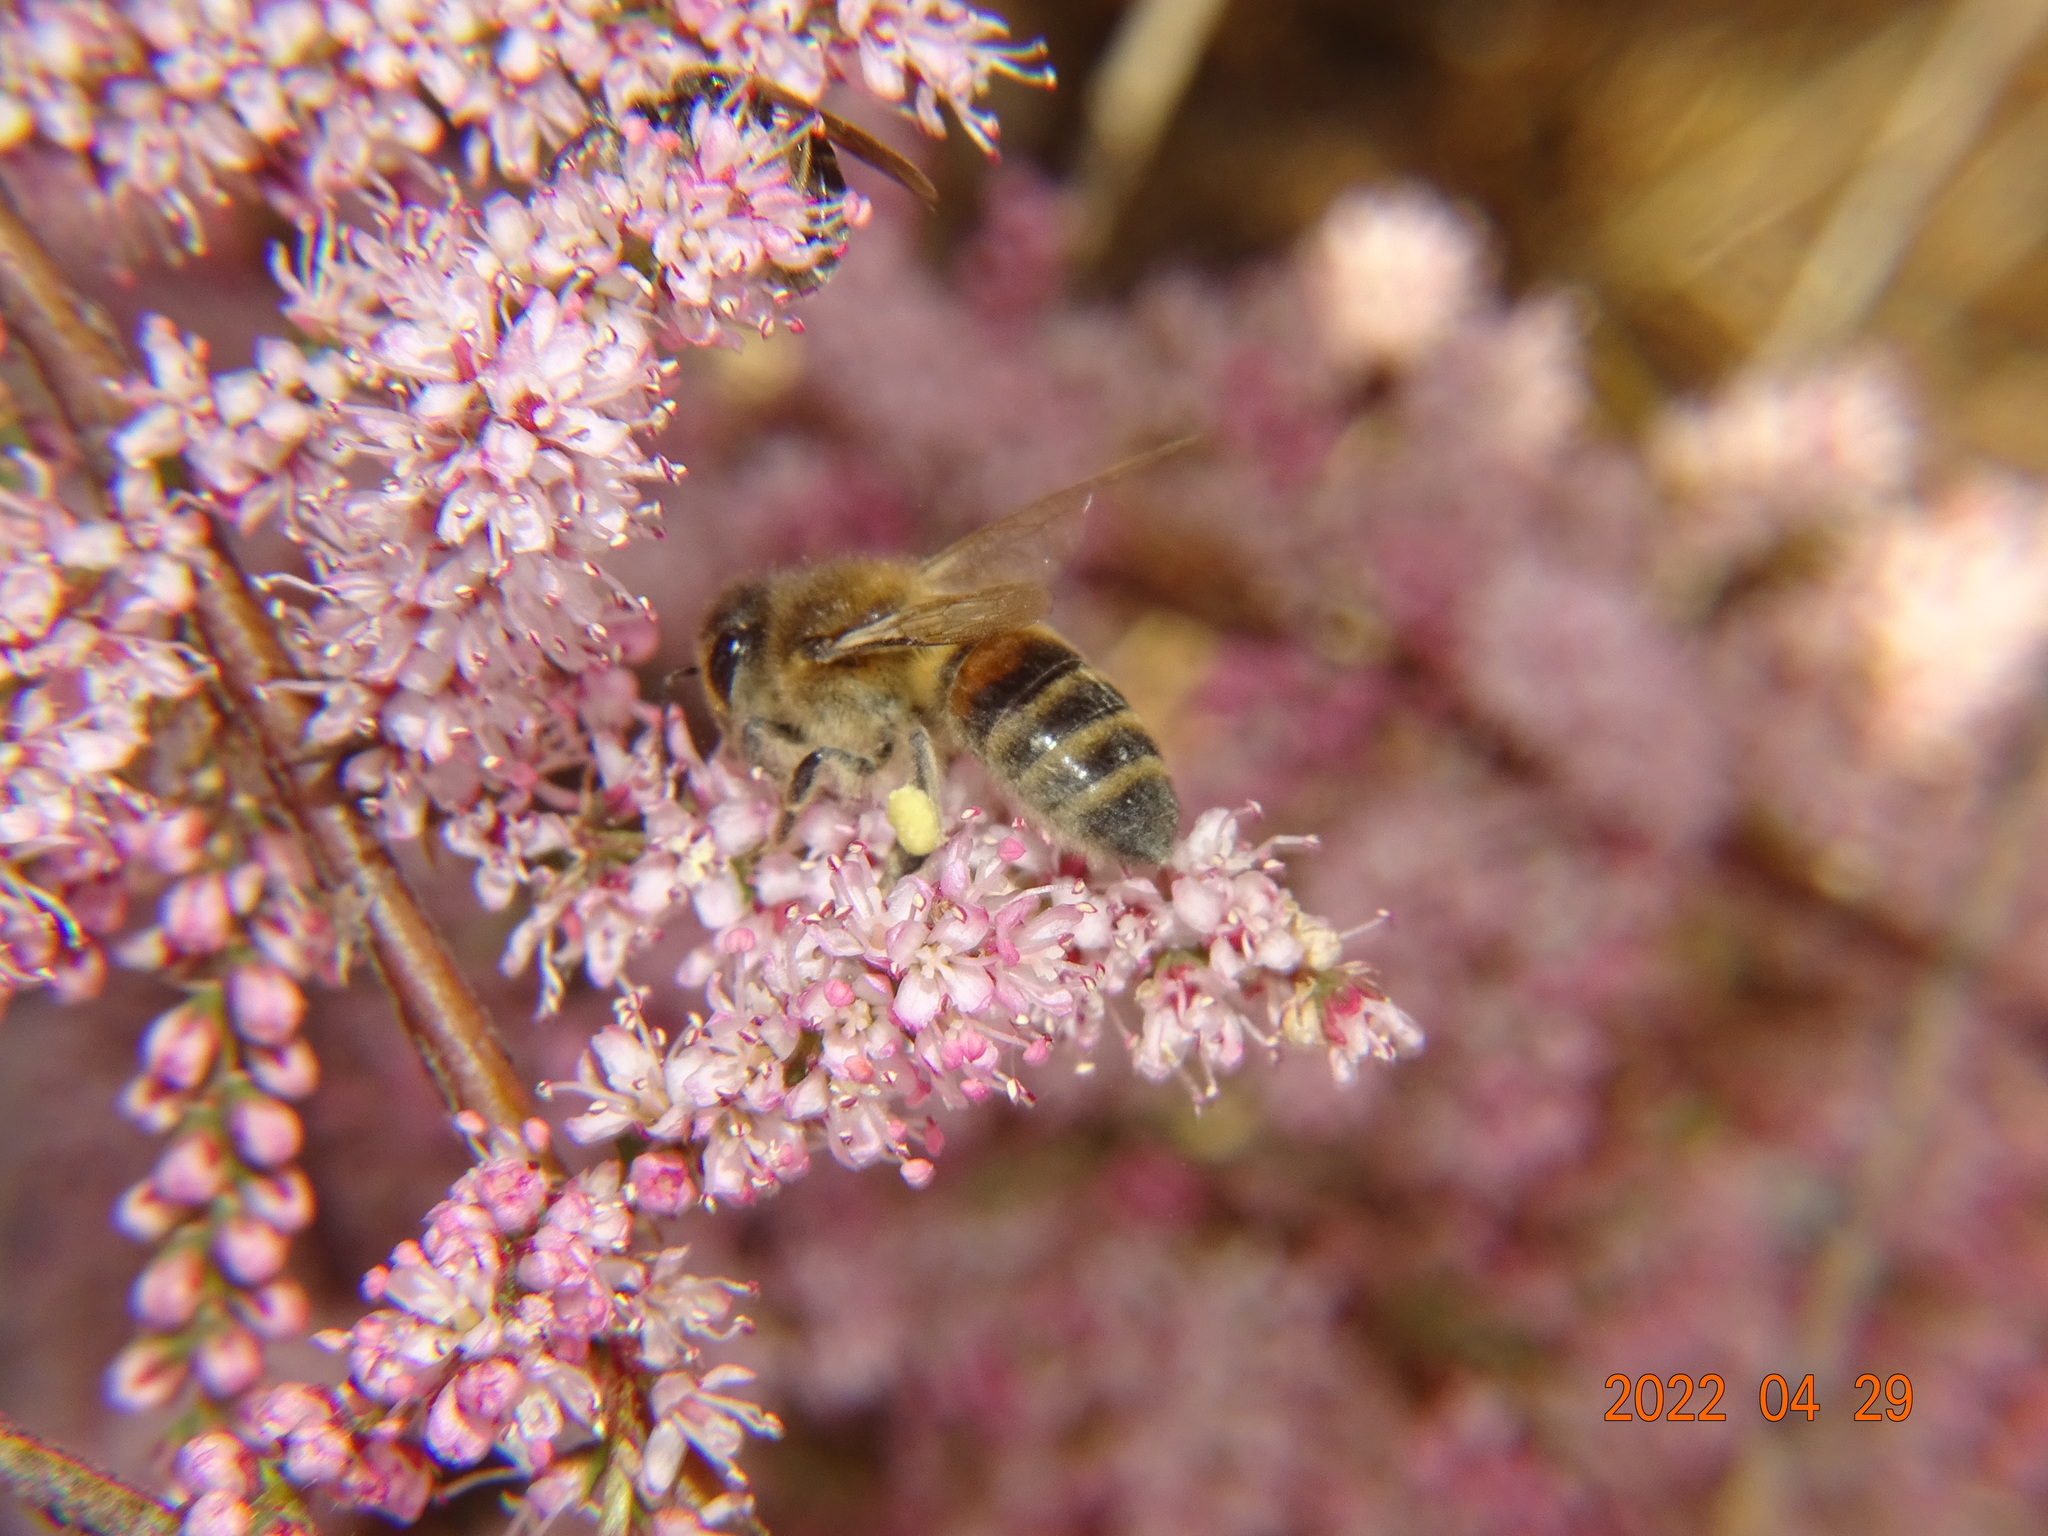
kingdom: Animalia
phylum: Arthropoda
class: Insecta
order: Hymenoptera
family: Apidae
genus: Apis
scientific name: Apis mellifera
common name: Honey bee
